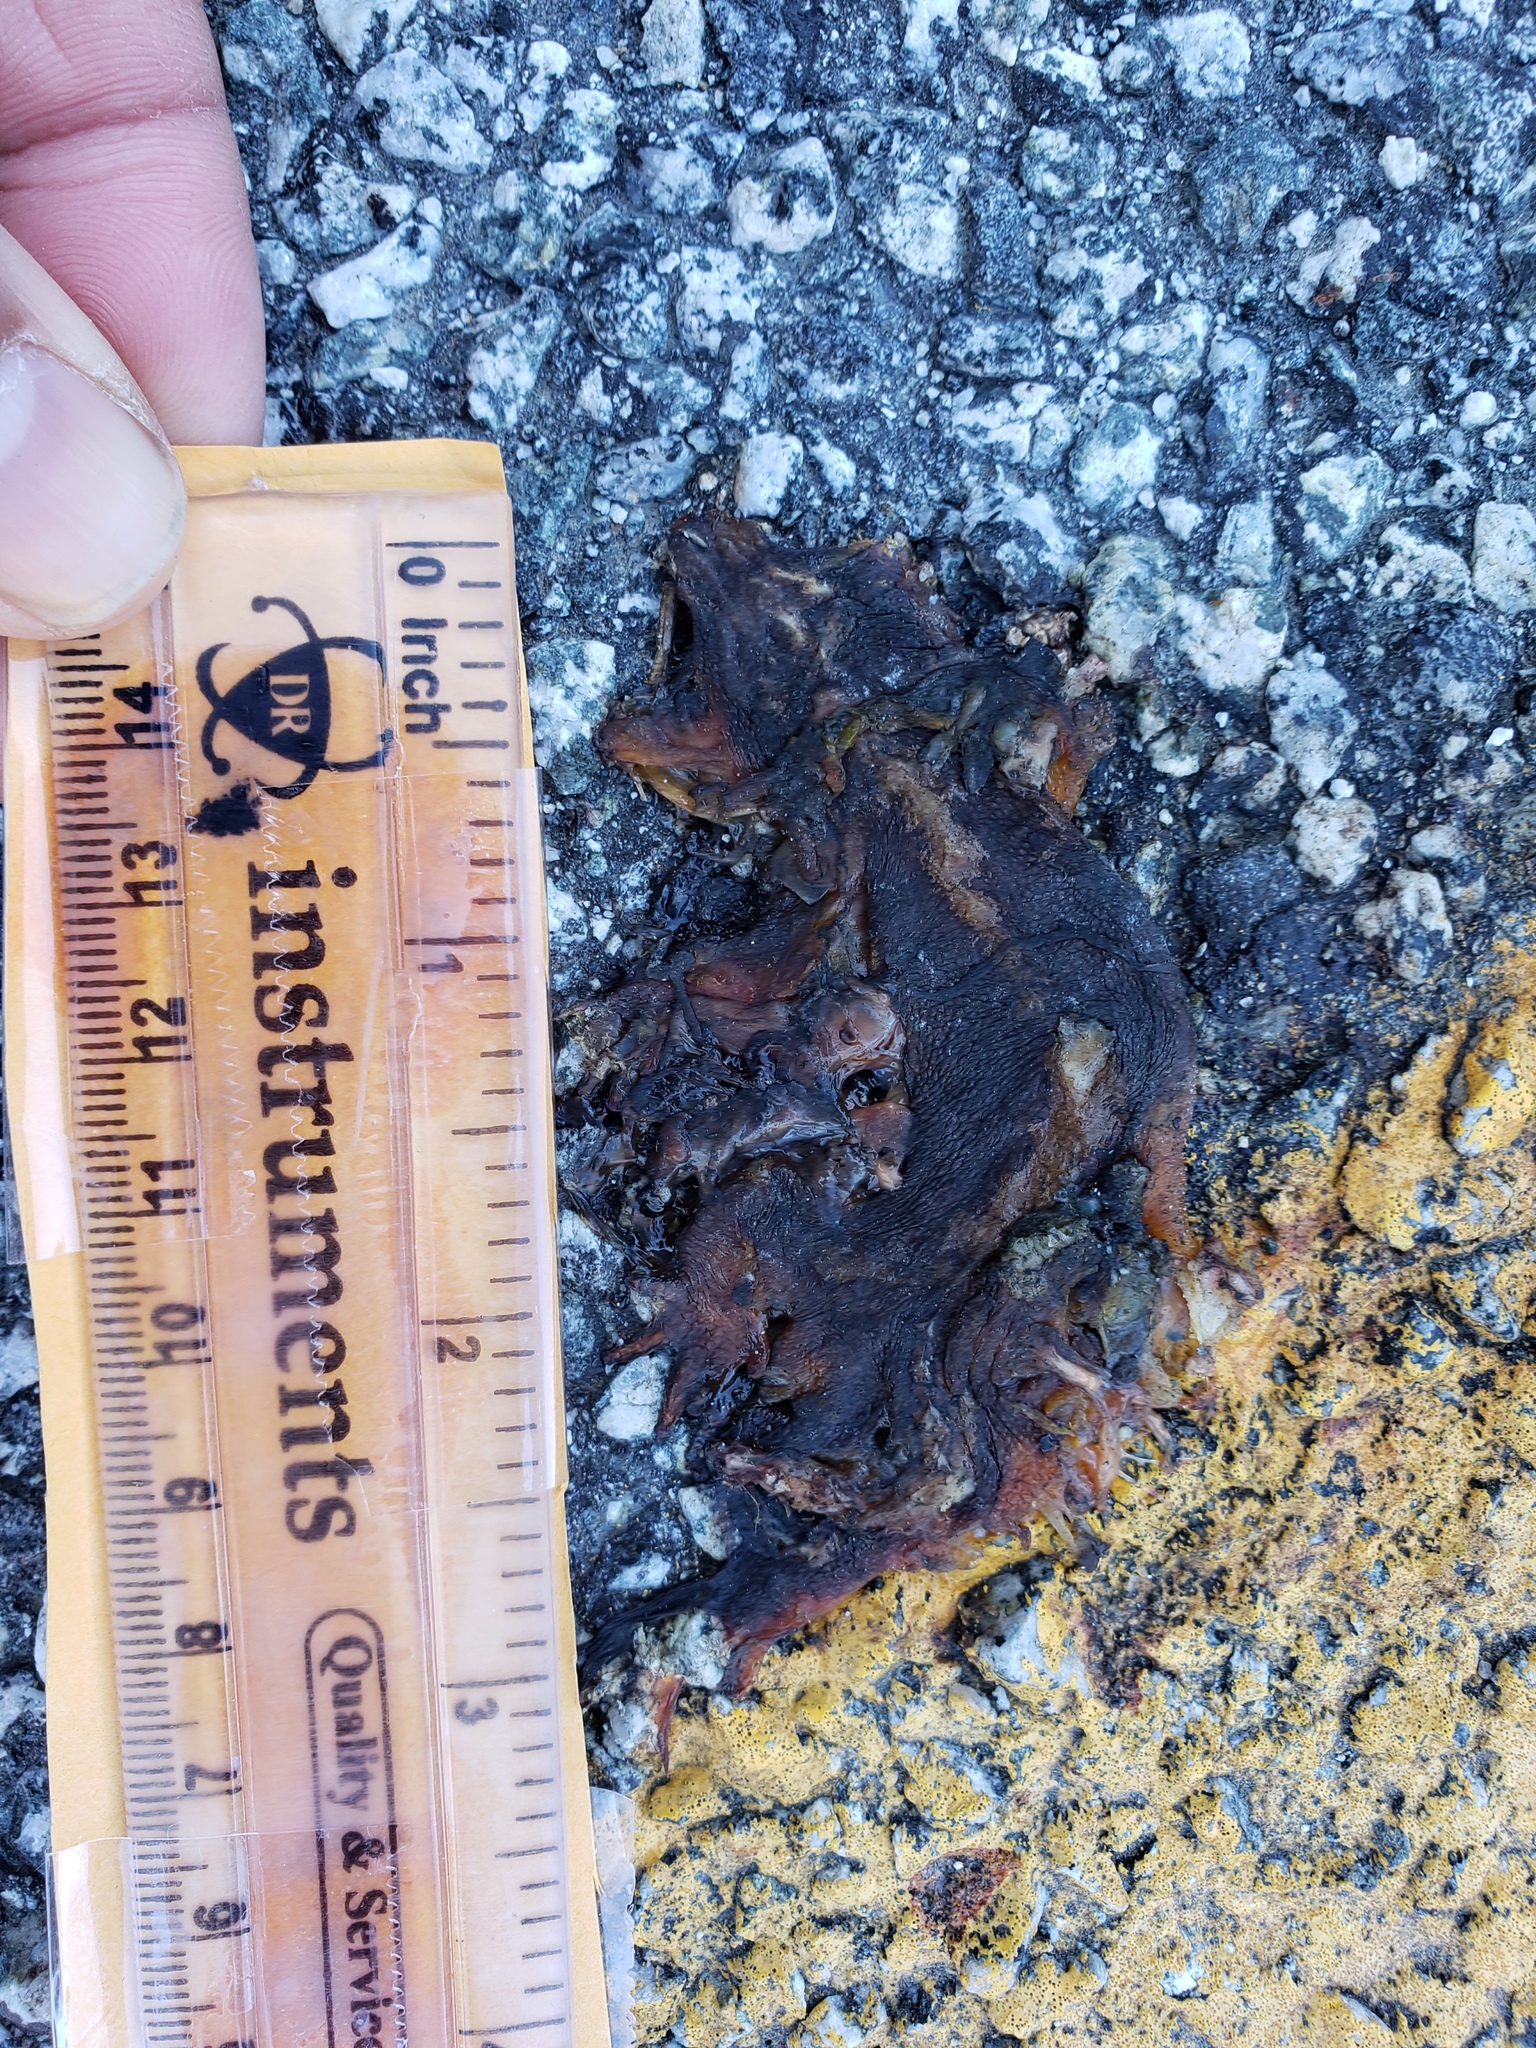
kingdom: Animalia
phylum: Chordata
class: Amphibia
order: Caudata
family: Salamandridae
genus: Taricha
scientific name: Taricha
